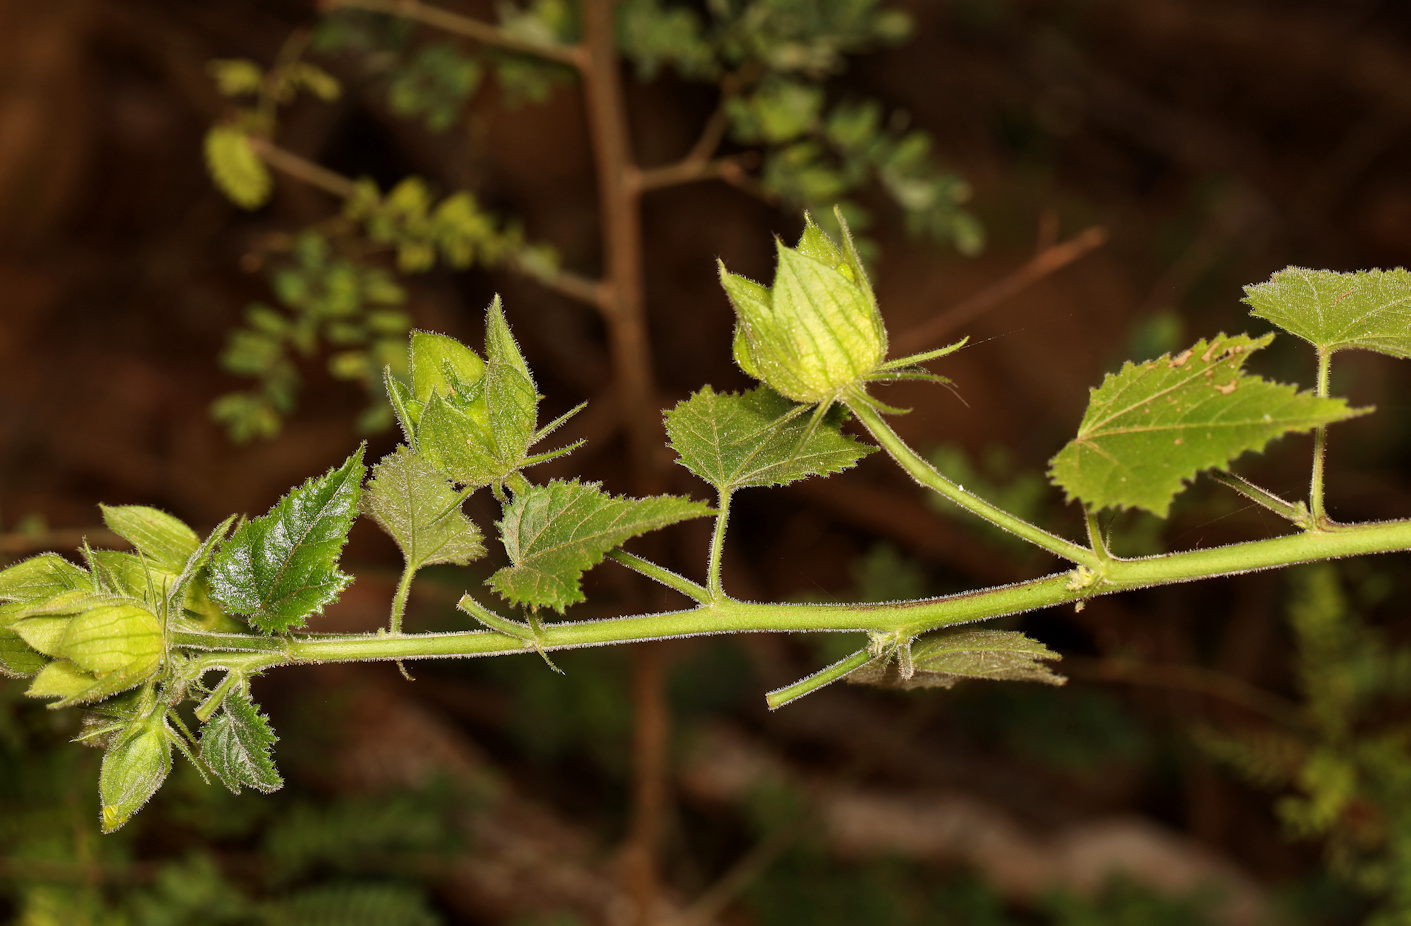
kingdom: Plantae
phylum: Tracheophyta
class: Magnoliopsida
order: Malvales
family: Malvaceae
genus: Hibiscus
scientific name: Hibiscus schinzii
